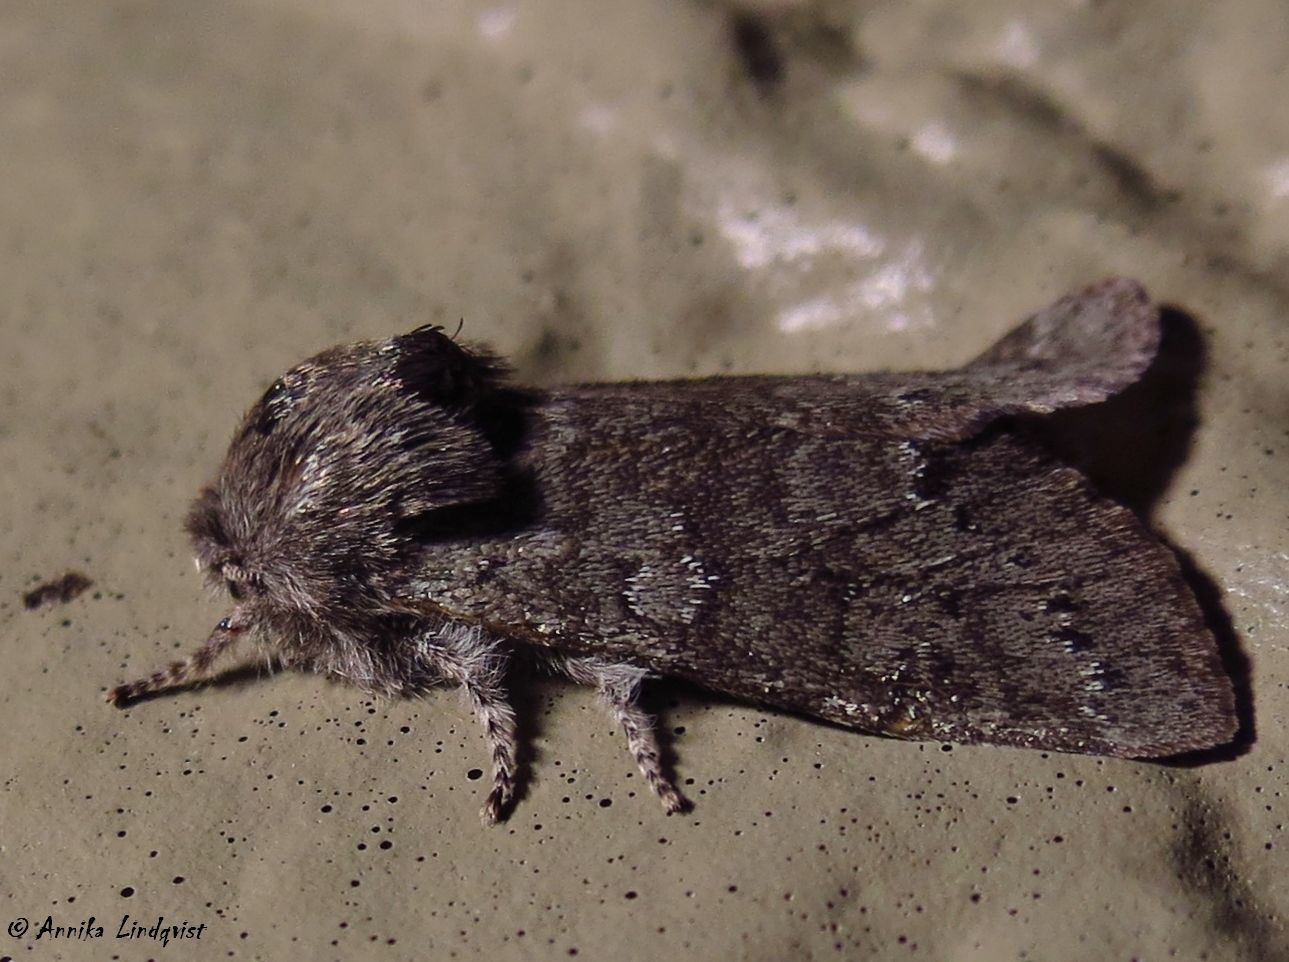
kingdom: Animalia
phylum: Arthropoda
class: Insecta
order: Lepidoptera
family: Noctuidae
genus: Psaphida
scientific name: Psaphida rolandi
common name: Roland's sallow
